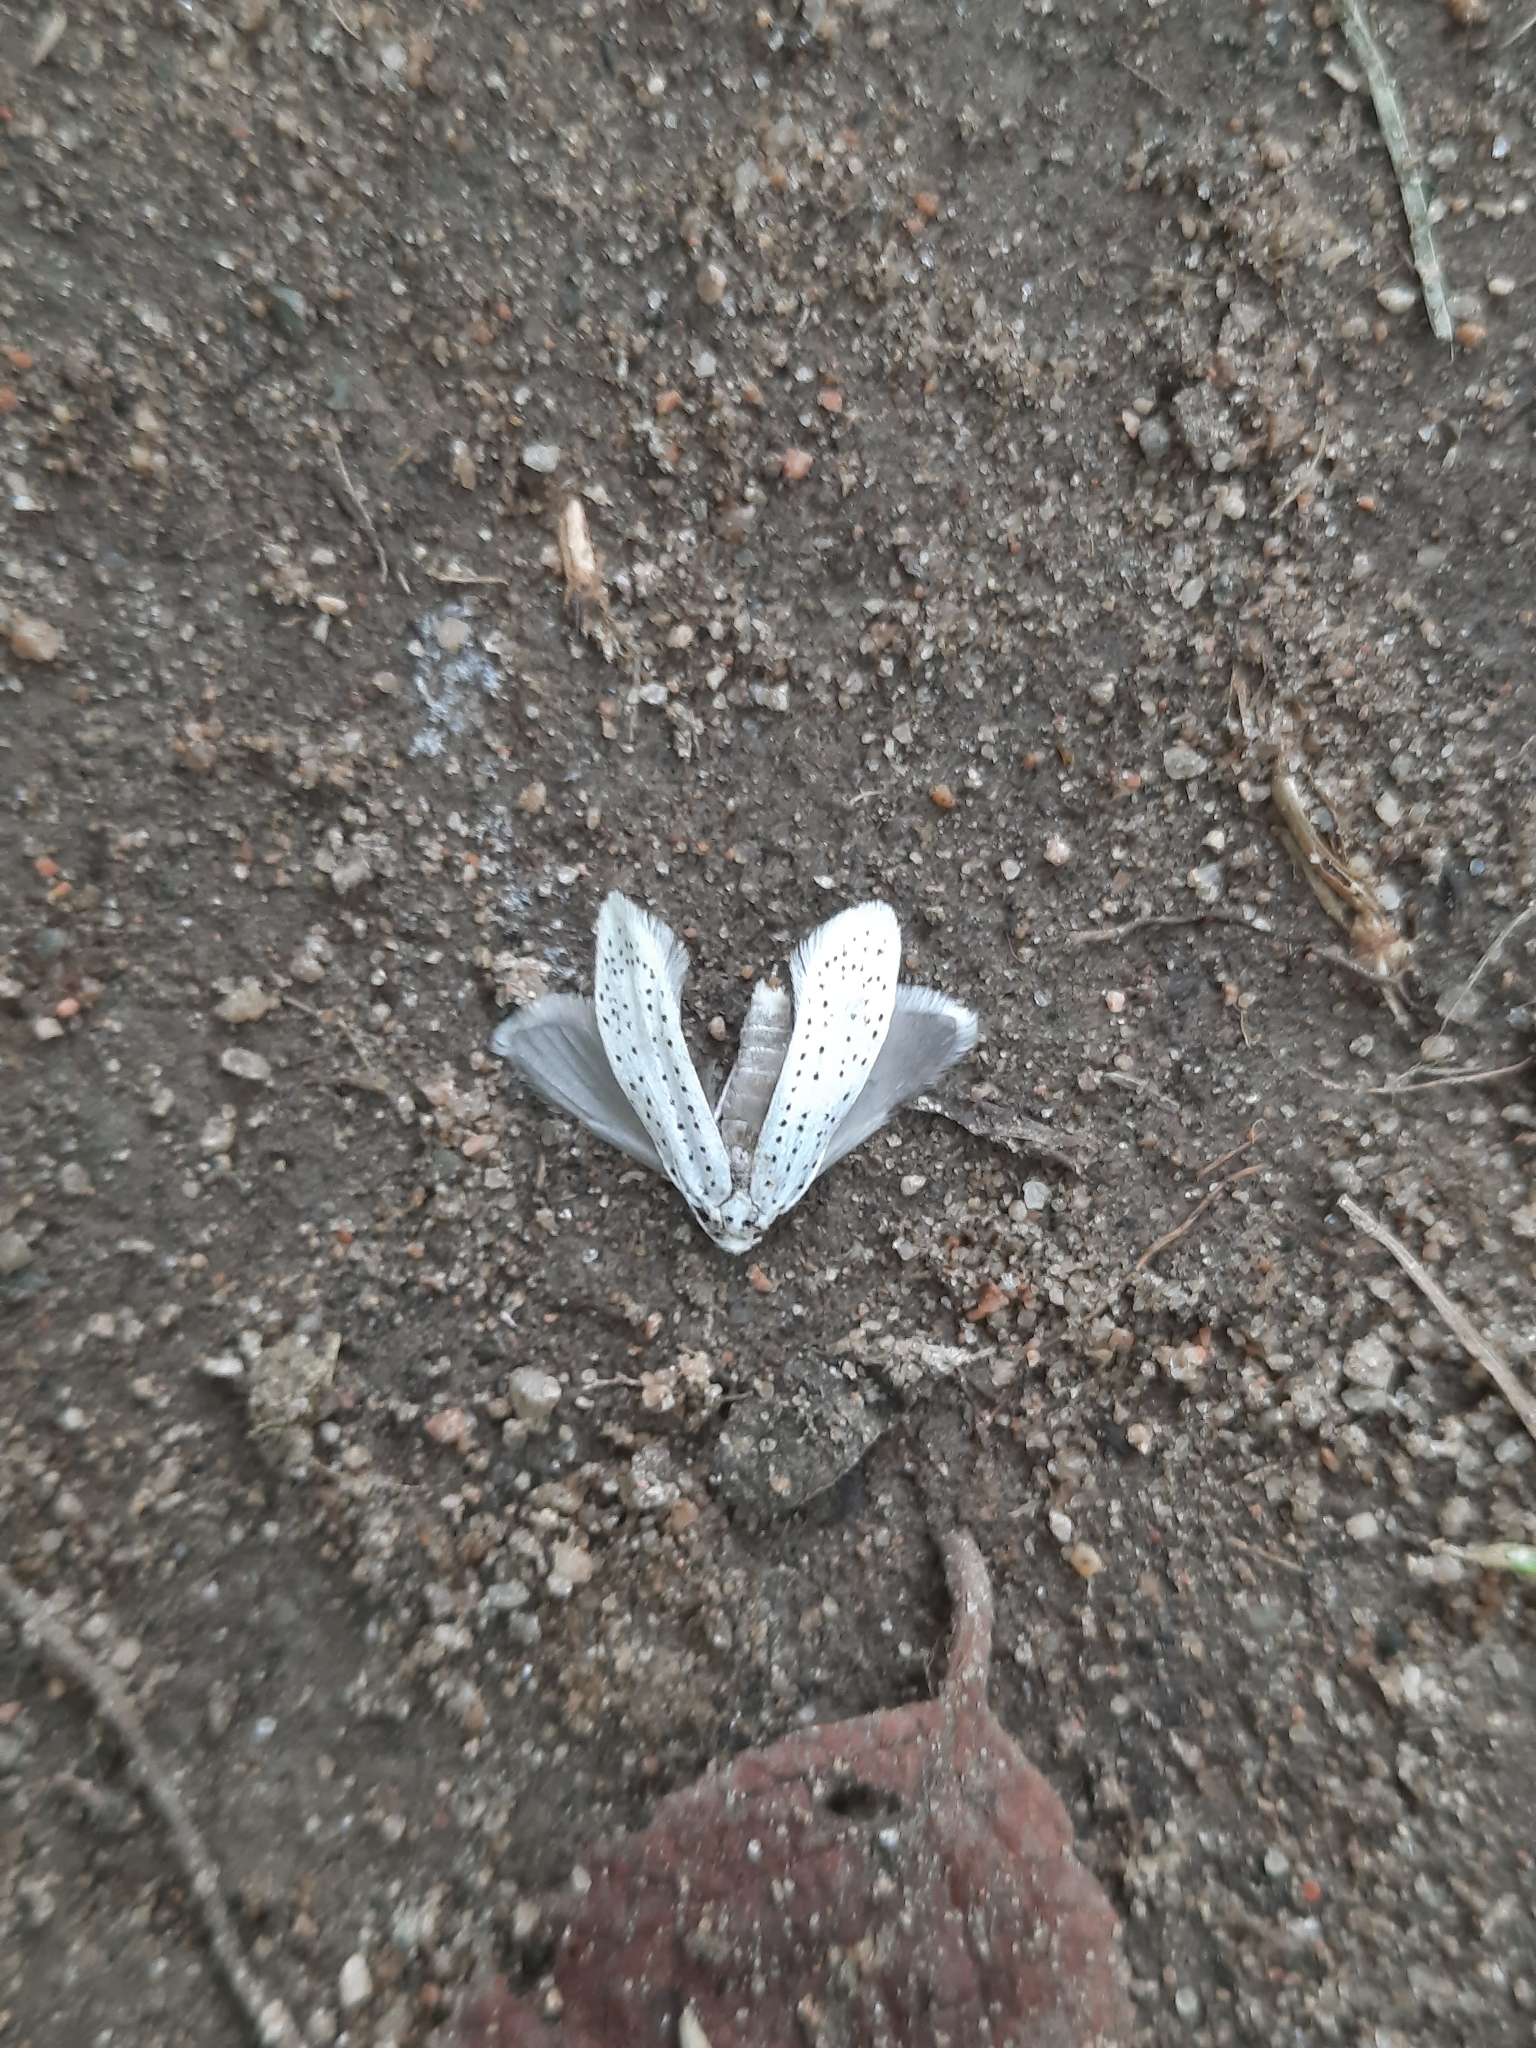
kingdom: Animalia
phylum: Arthropoda
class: Insecta
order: Lepidoptera
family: Yponomeutidae
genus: Yponomeuta
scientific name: Yponomeuta evonymella
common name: Bird-cherry ermine
